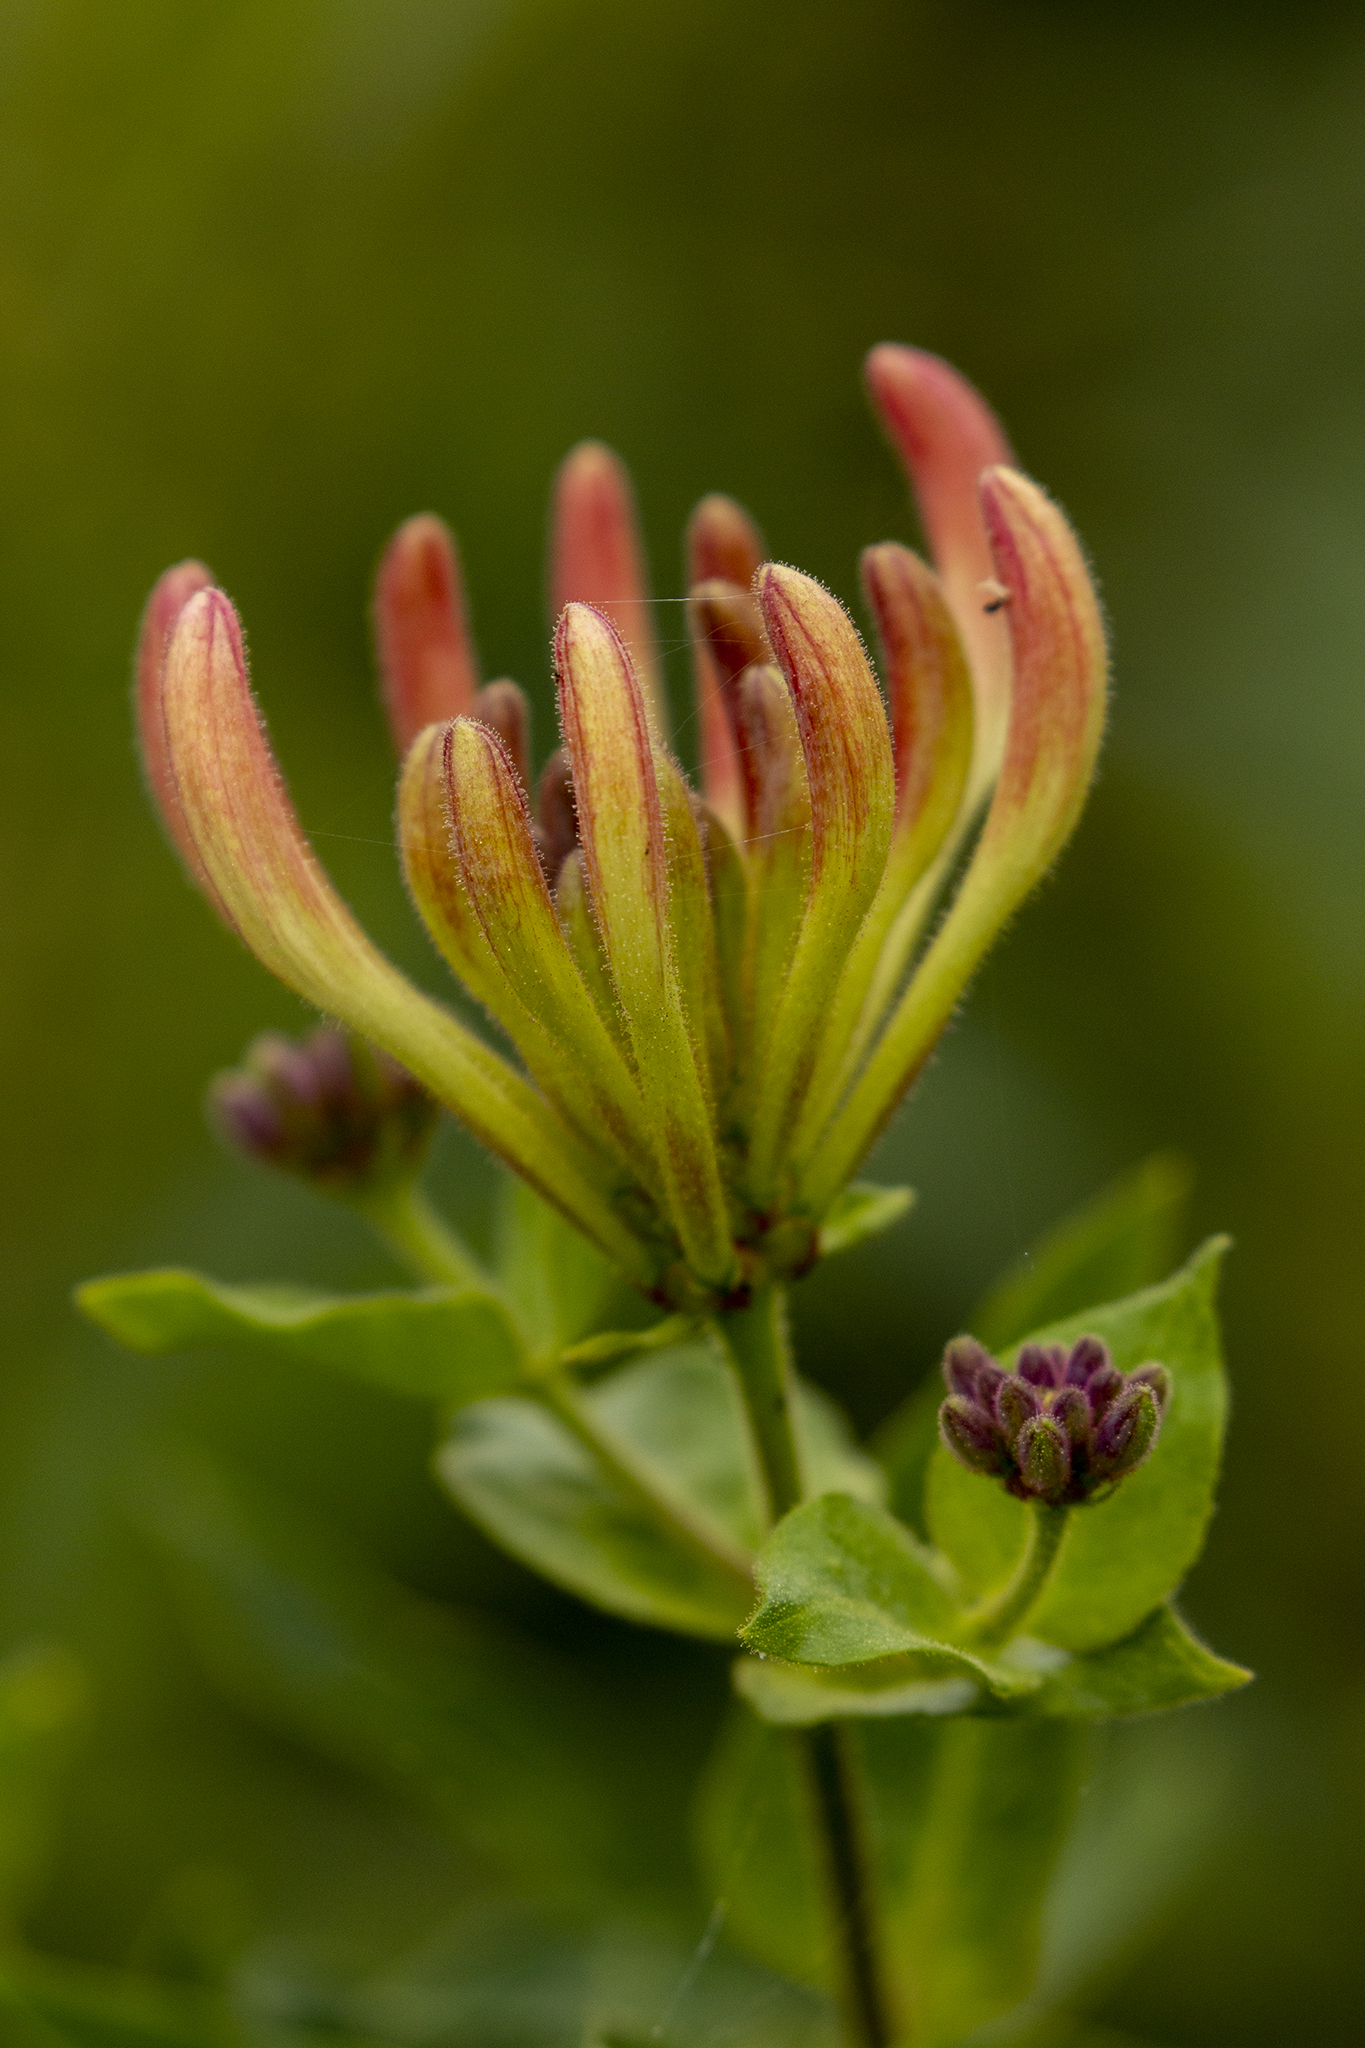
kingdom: Plantae
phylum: Tracheophyta
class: Magnoliopsida
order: Dipsacales
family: Caprifoliaceae
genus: Lonicera
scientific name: Lonicera periclymenum
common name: European honeysuckle
